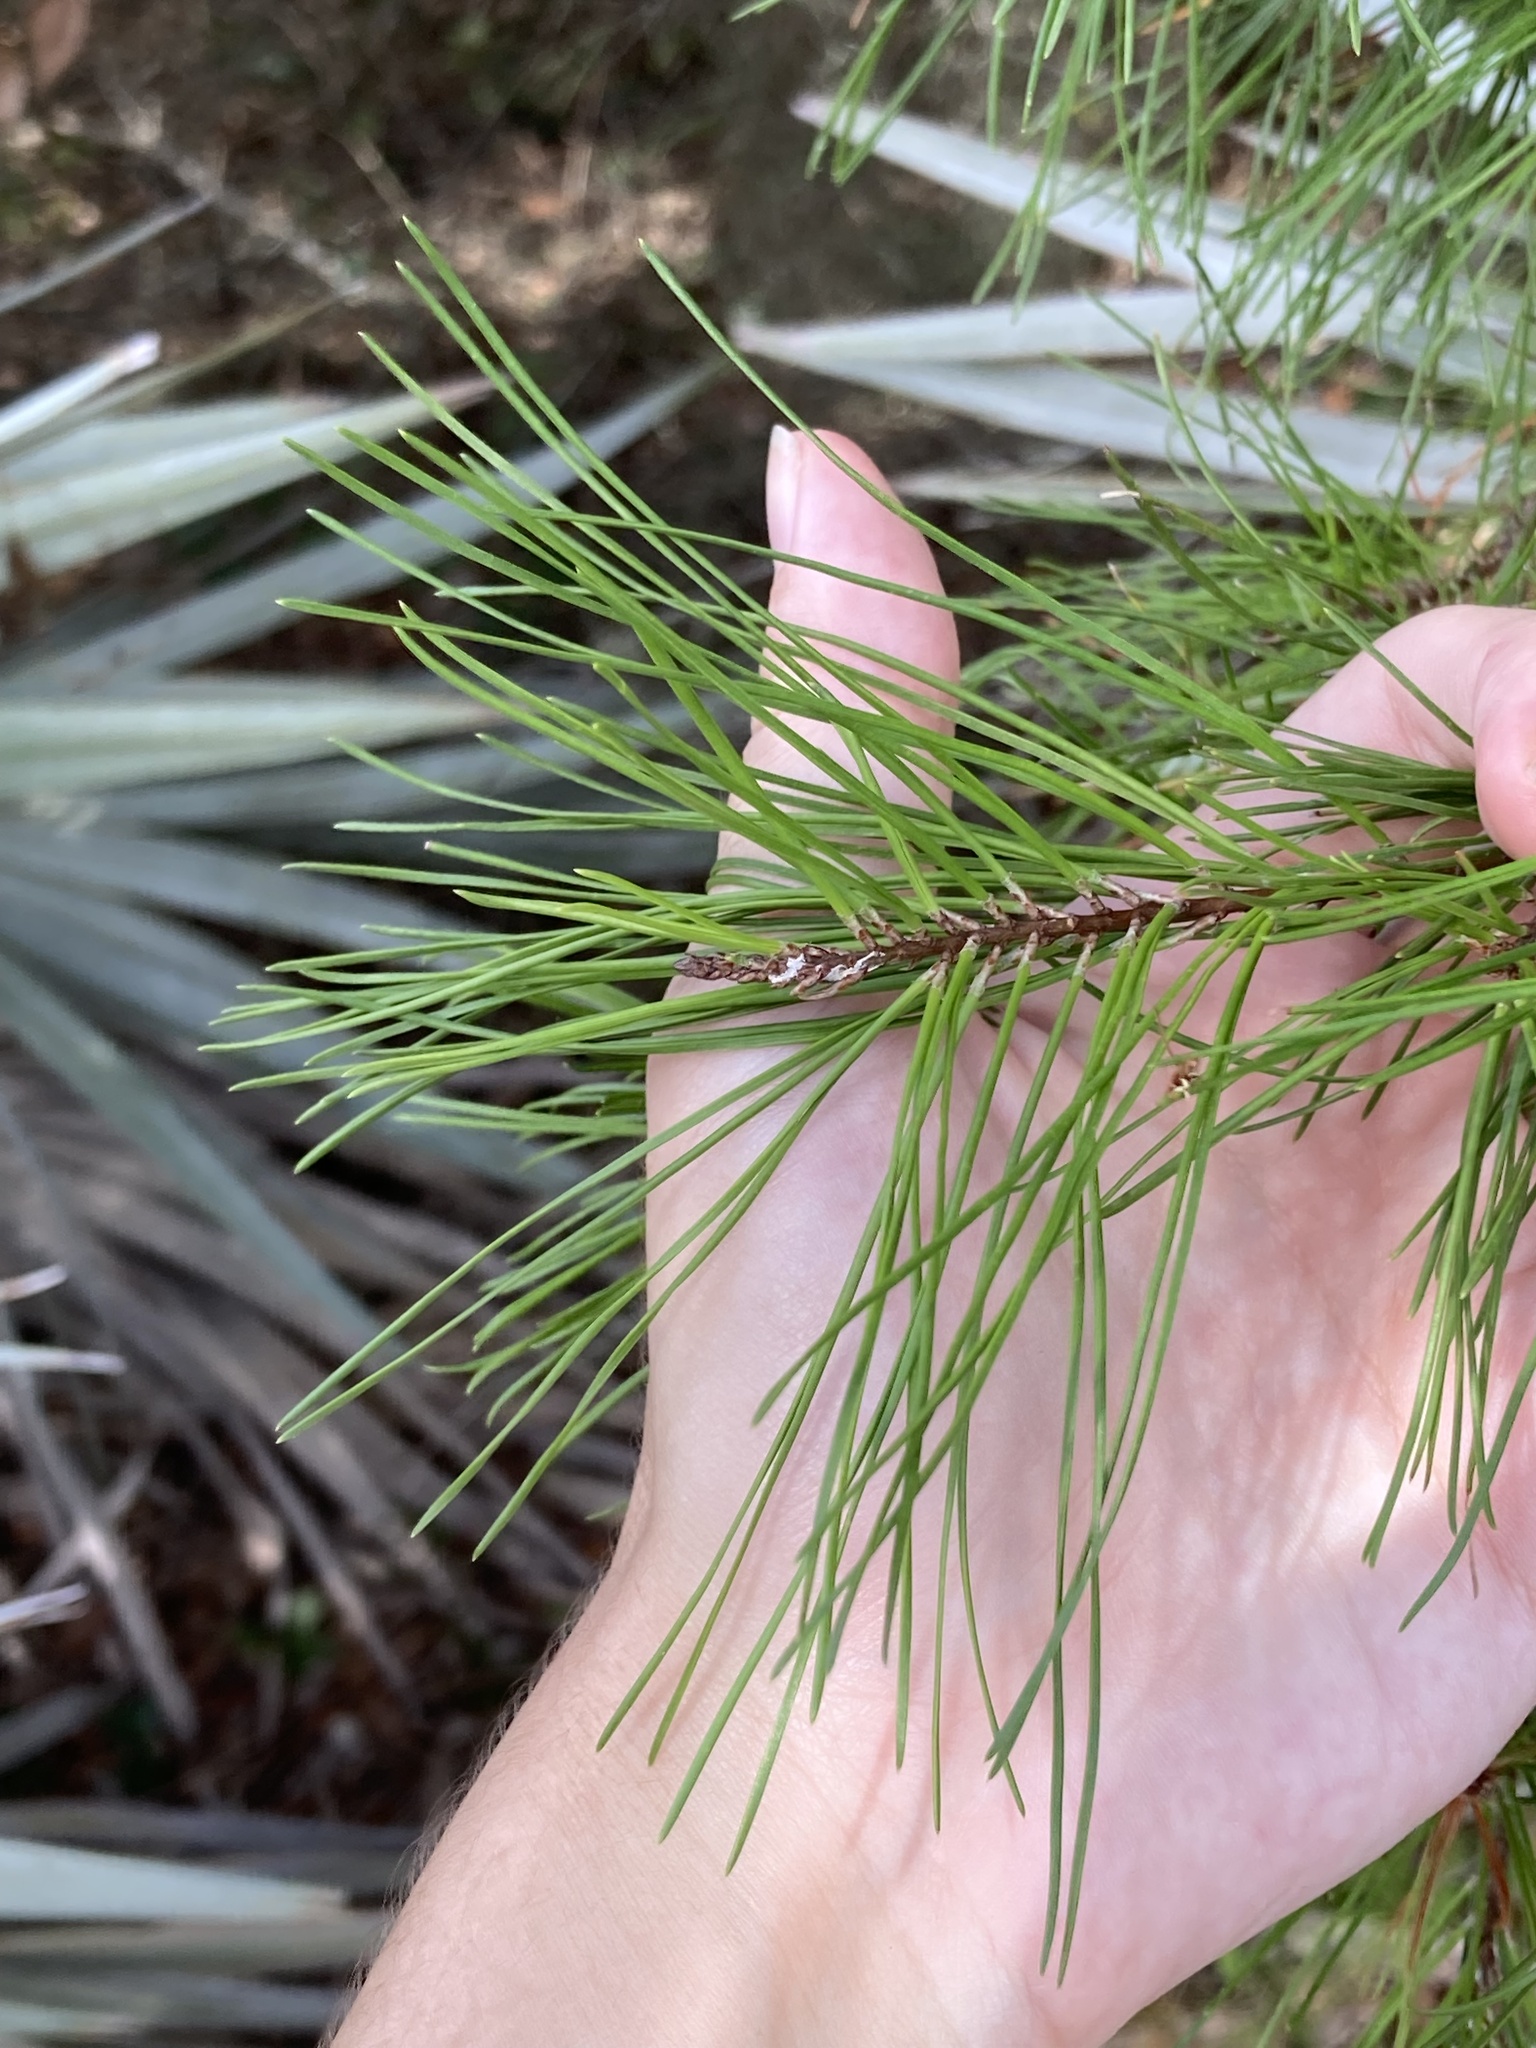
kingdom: Plantae
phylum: Tracheophyta
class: Pinopsida
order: Pinales
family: Pinaceae
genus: Pinus
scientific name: Pinus clausa
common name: Sand pine
